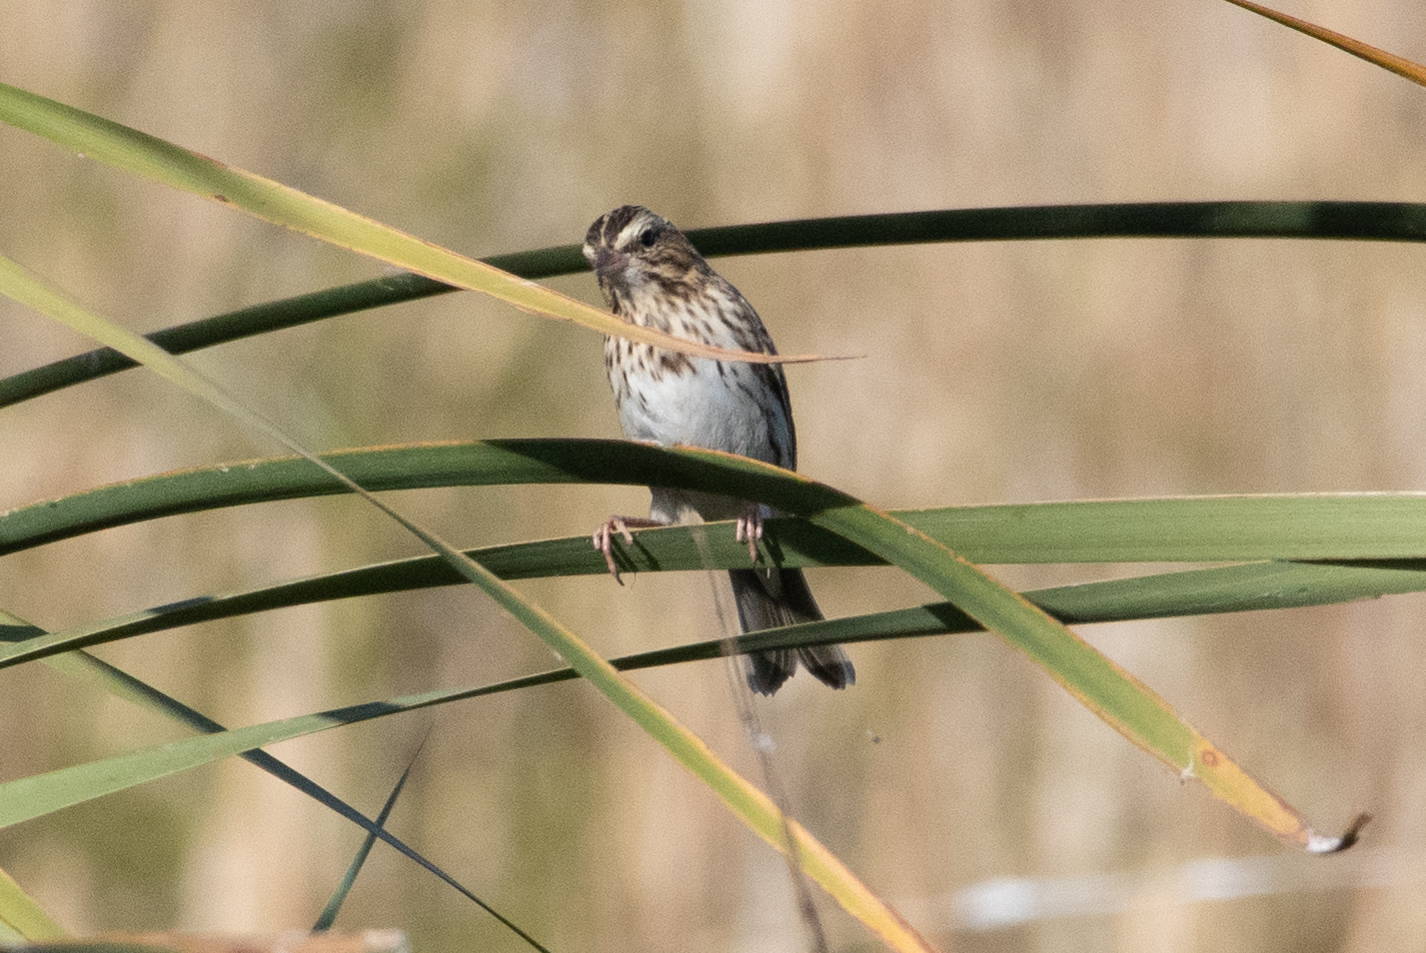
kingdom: Animalia
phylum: Chordata
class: Aves
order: Passeriformes
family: Passerellidae
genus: Passerculus
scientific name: Passerculus sandwichensis
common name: Savannah sparrow
